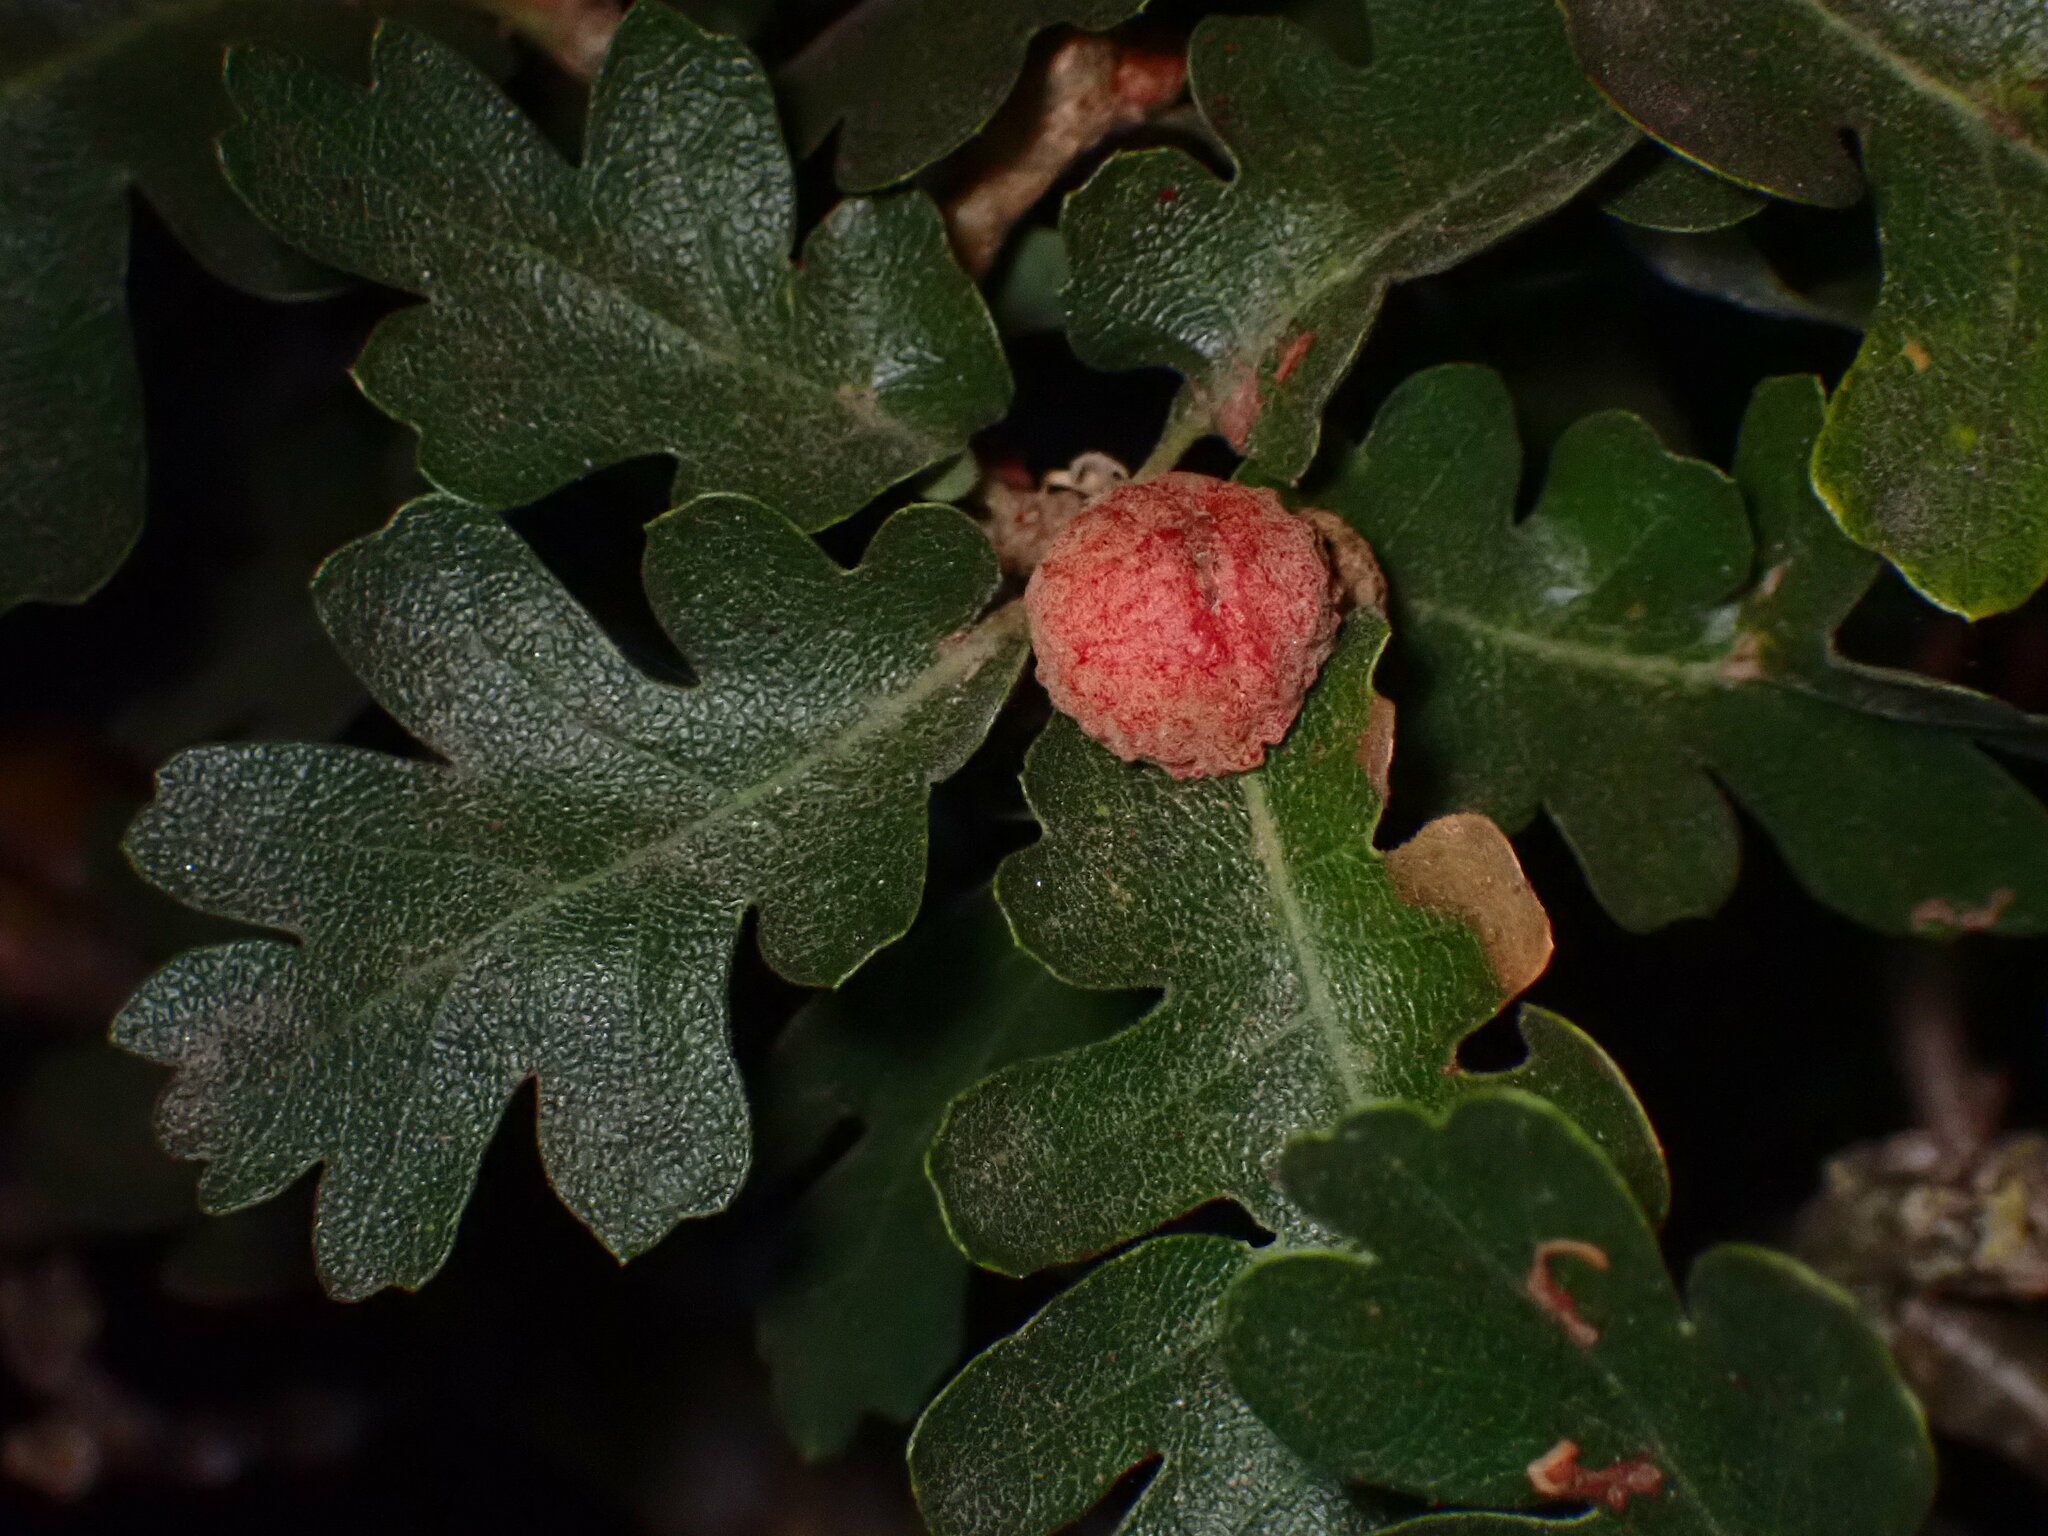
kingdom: Animalia
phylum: Arthropoda
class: Insecta
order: Hymenoptera
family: Cynipidae
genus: Cynips
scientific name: Cynips conspicua
